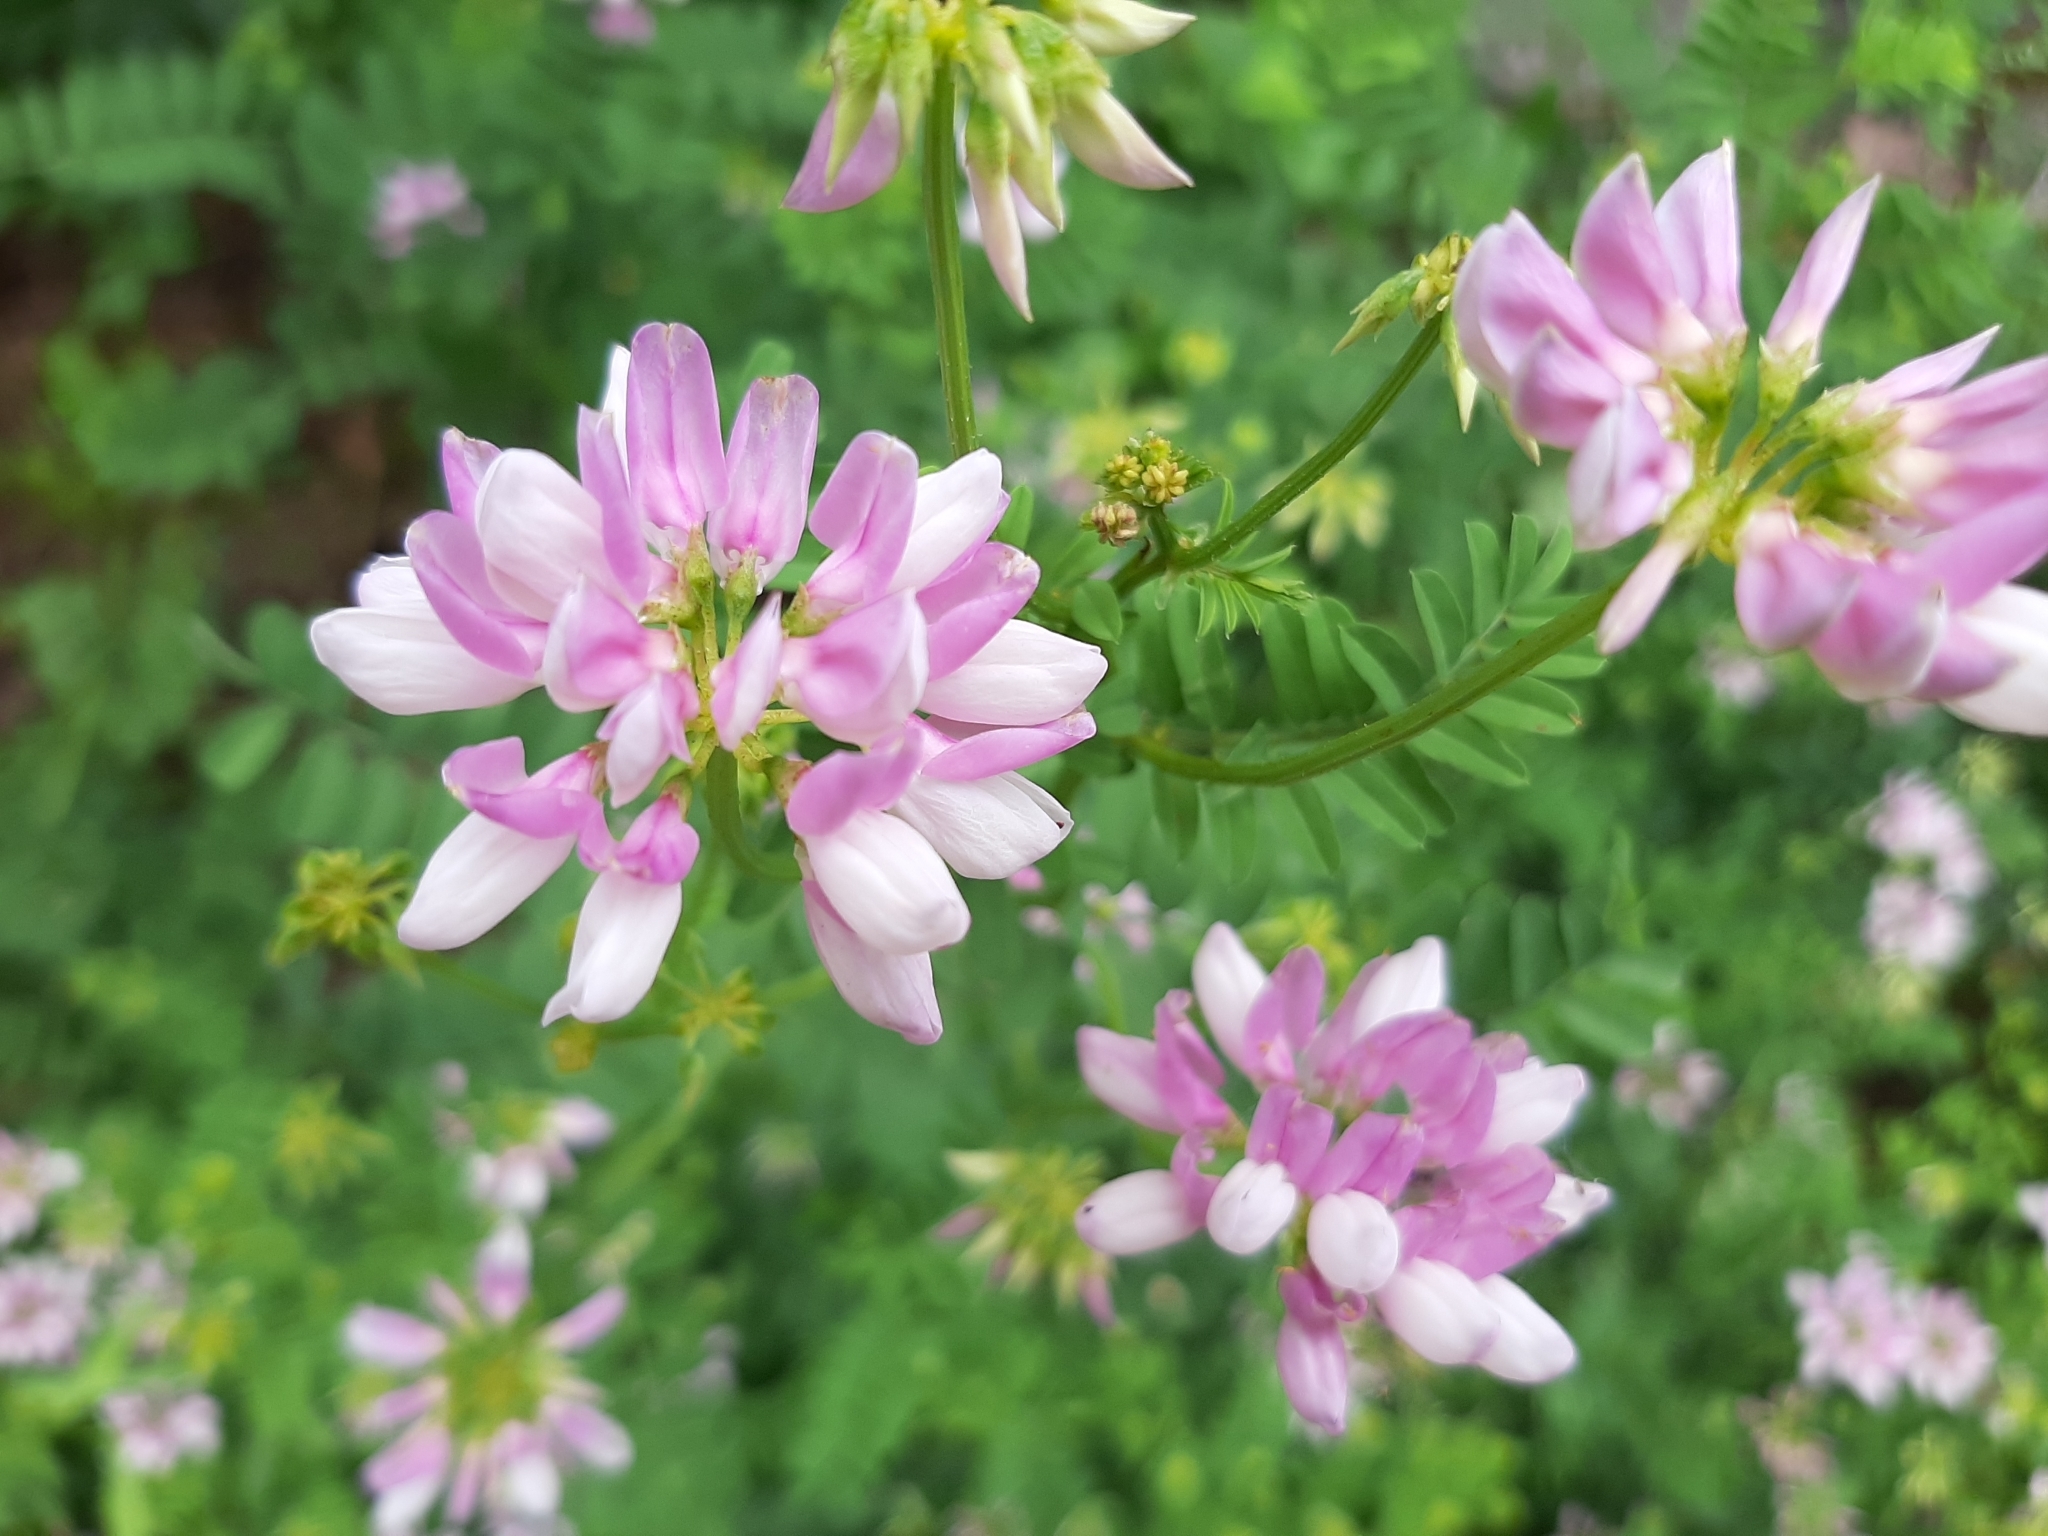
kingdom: Plantae
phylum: Tracheophyta
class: Magnoliopsida
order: Fabales
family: Fabaceae
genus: Coronilla
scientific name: Coronilla varia
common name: Crownvetch
